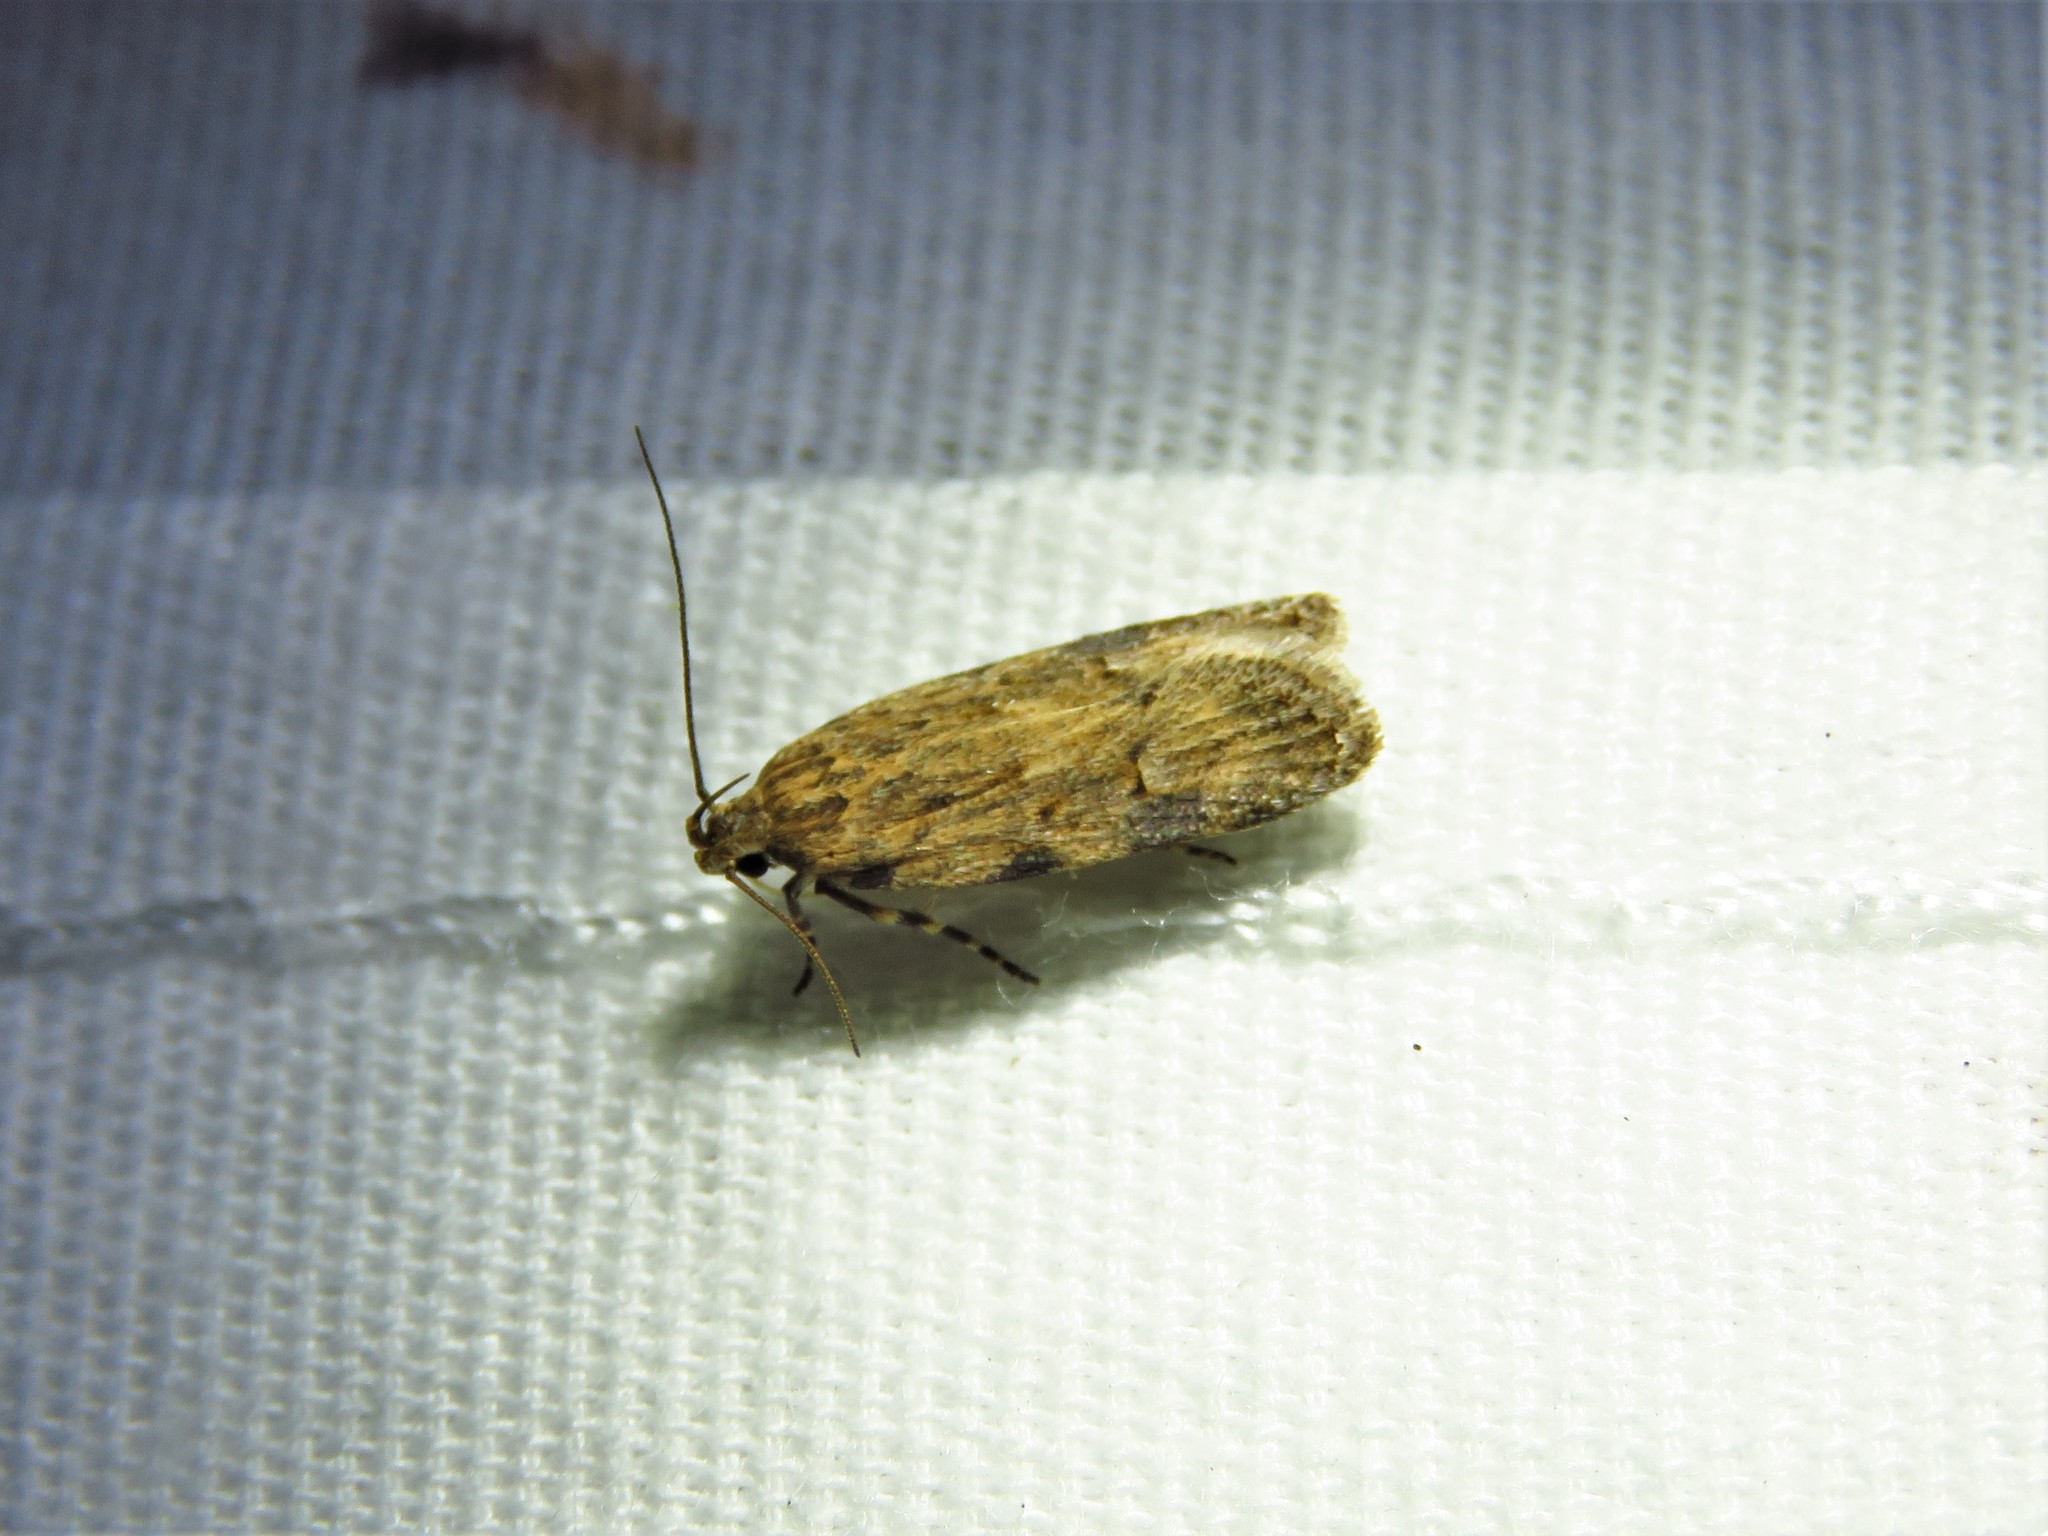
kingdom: Animalia
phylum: Arthropoda
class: Insecta
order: Lepidoptera
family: Gelechiidae
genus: Friseria
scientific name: Friseria cockerelli
